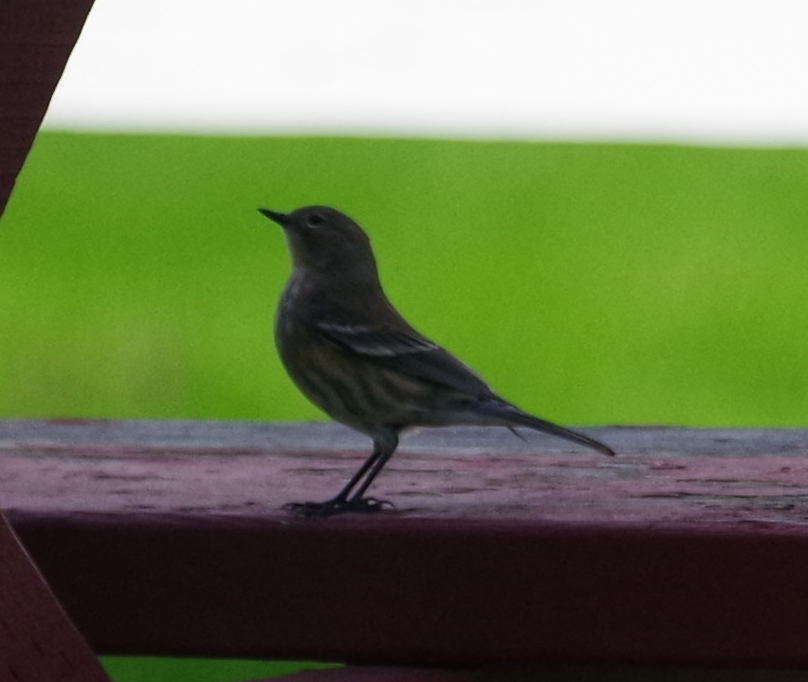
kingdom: Animalia
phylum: Chordata
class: Aves
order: Passeriformes
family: Parulidae
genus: Setophaga
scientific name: Setophaga coronata
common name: Myrtle warbler
